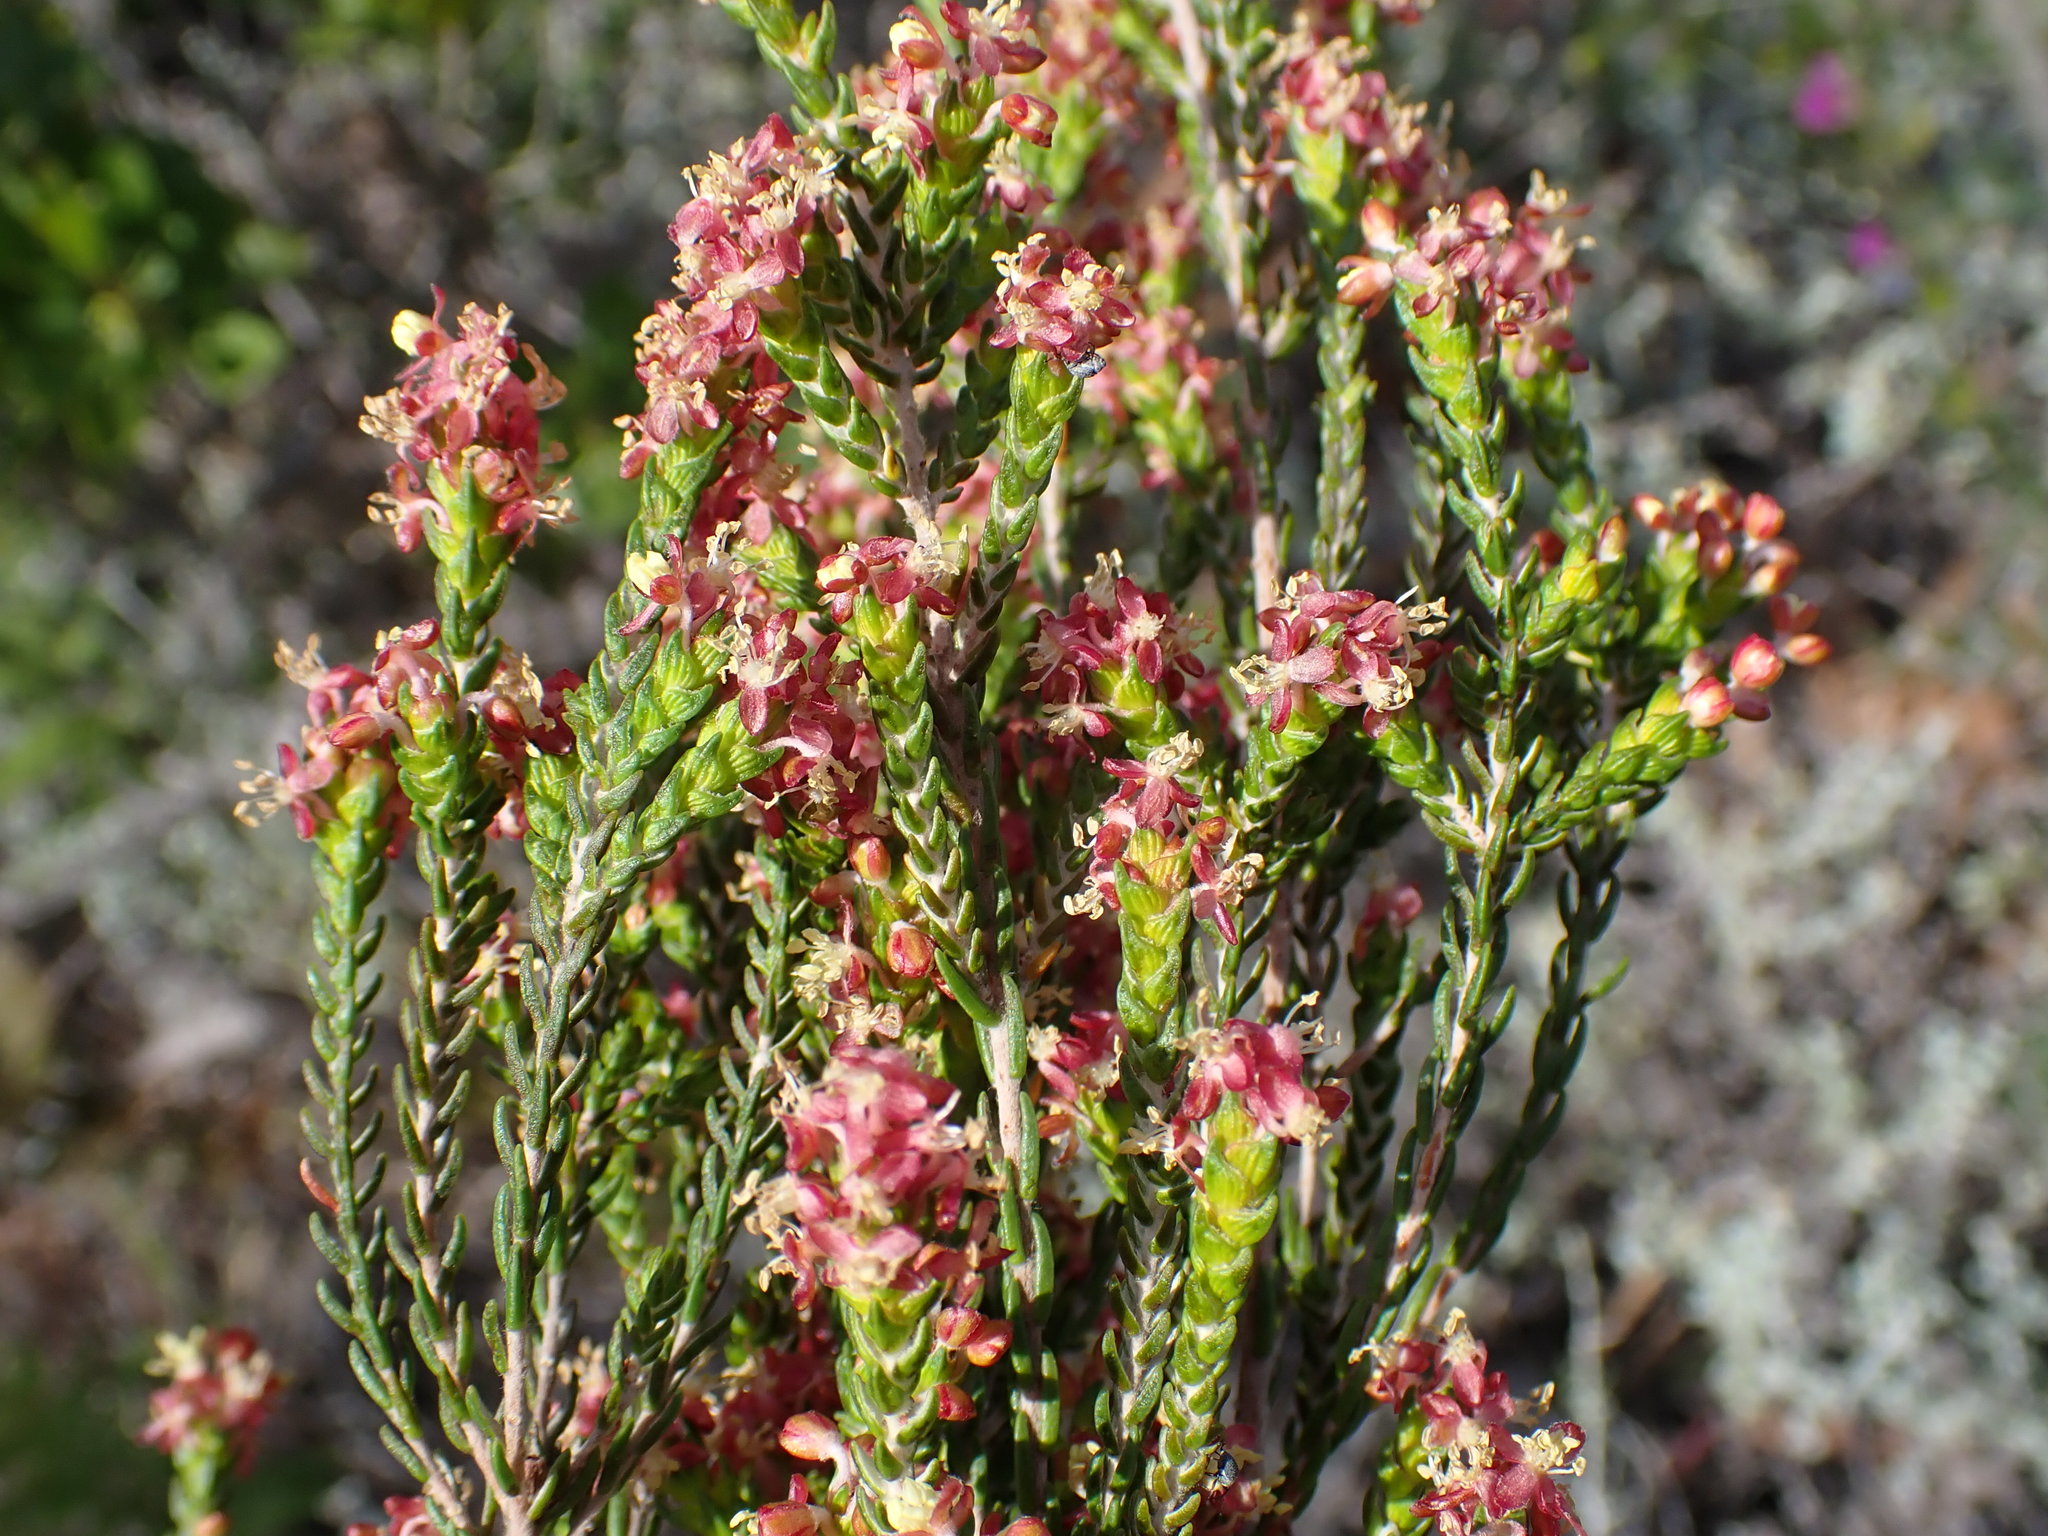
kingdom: Plantae
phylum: Tracheophyta
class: Magnoliopsida
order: Malvales
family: Thymelaeaceae
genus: Passerina
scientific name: Passerina rigida
